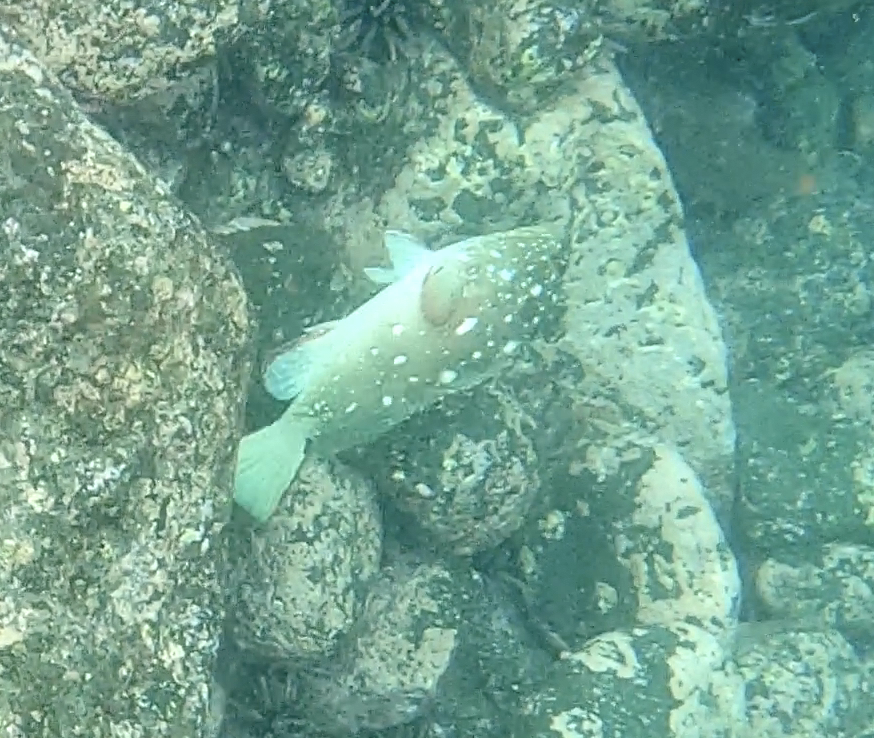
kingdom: Animalia
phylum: Chordata
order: Perciformes
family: Serranidae
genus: Epinephelus
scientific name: Epinephelus labriformis
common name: Flag cabrilla
